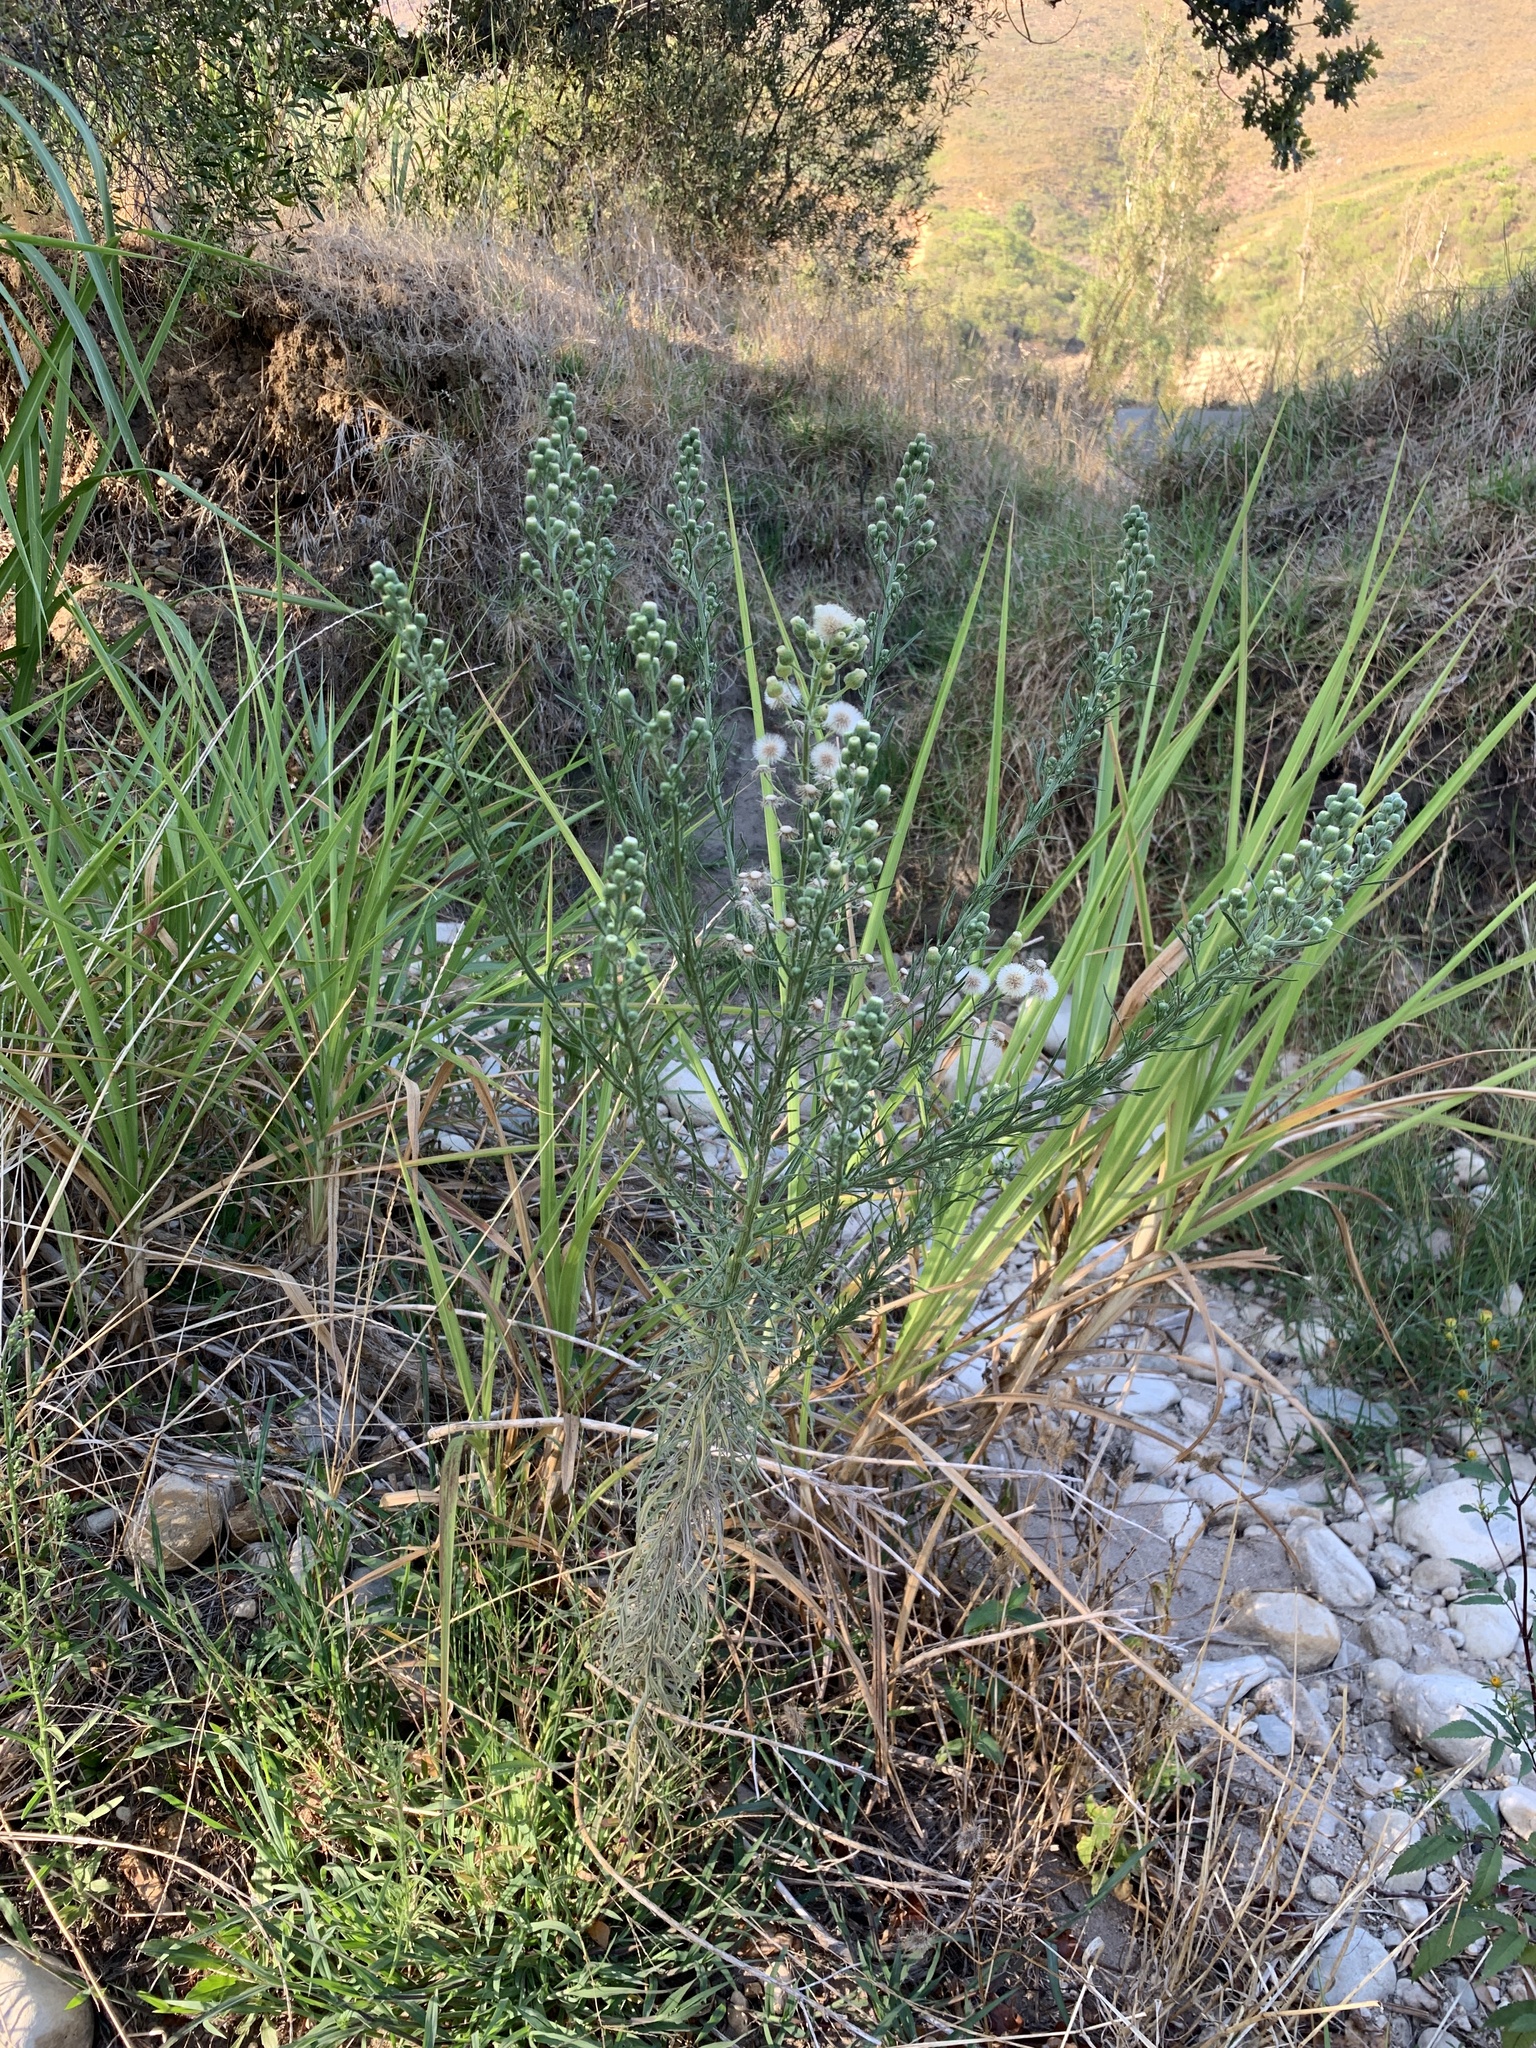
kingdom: Plantae
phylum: Tracheophyta
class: Magnoliopsida
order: Asterales
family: Asteraceae
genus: Erigeron
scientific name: Erigeron bonariensis
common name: Argentine fleabane
